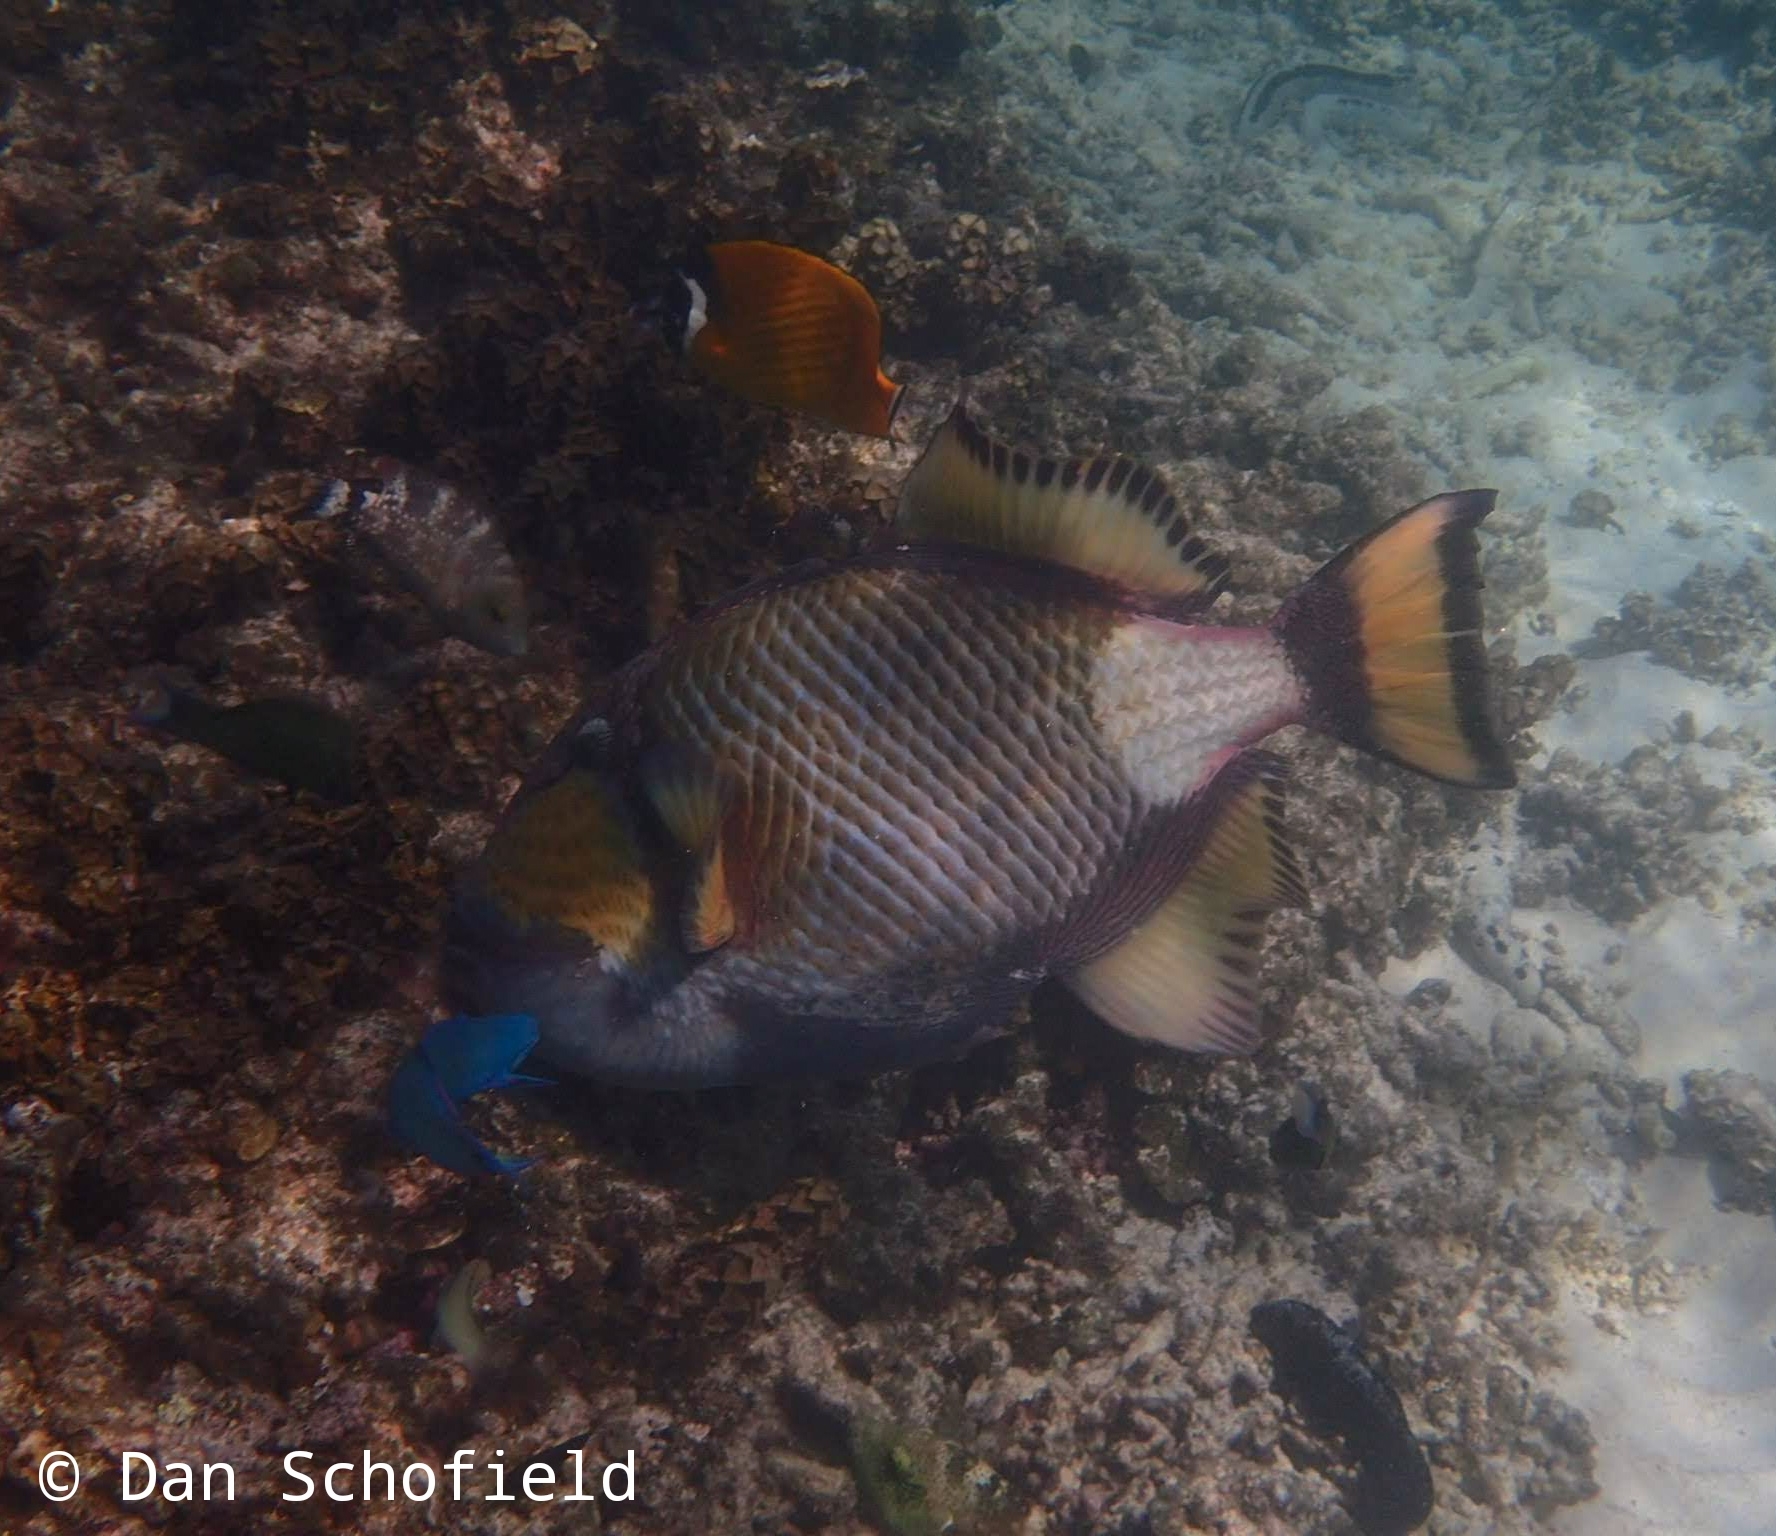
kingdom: Animalia
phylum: Chordata
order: Tetraodontiformes
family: Balistidae
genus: Balistoides
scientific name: Balistoides viridescens
